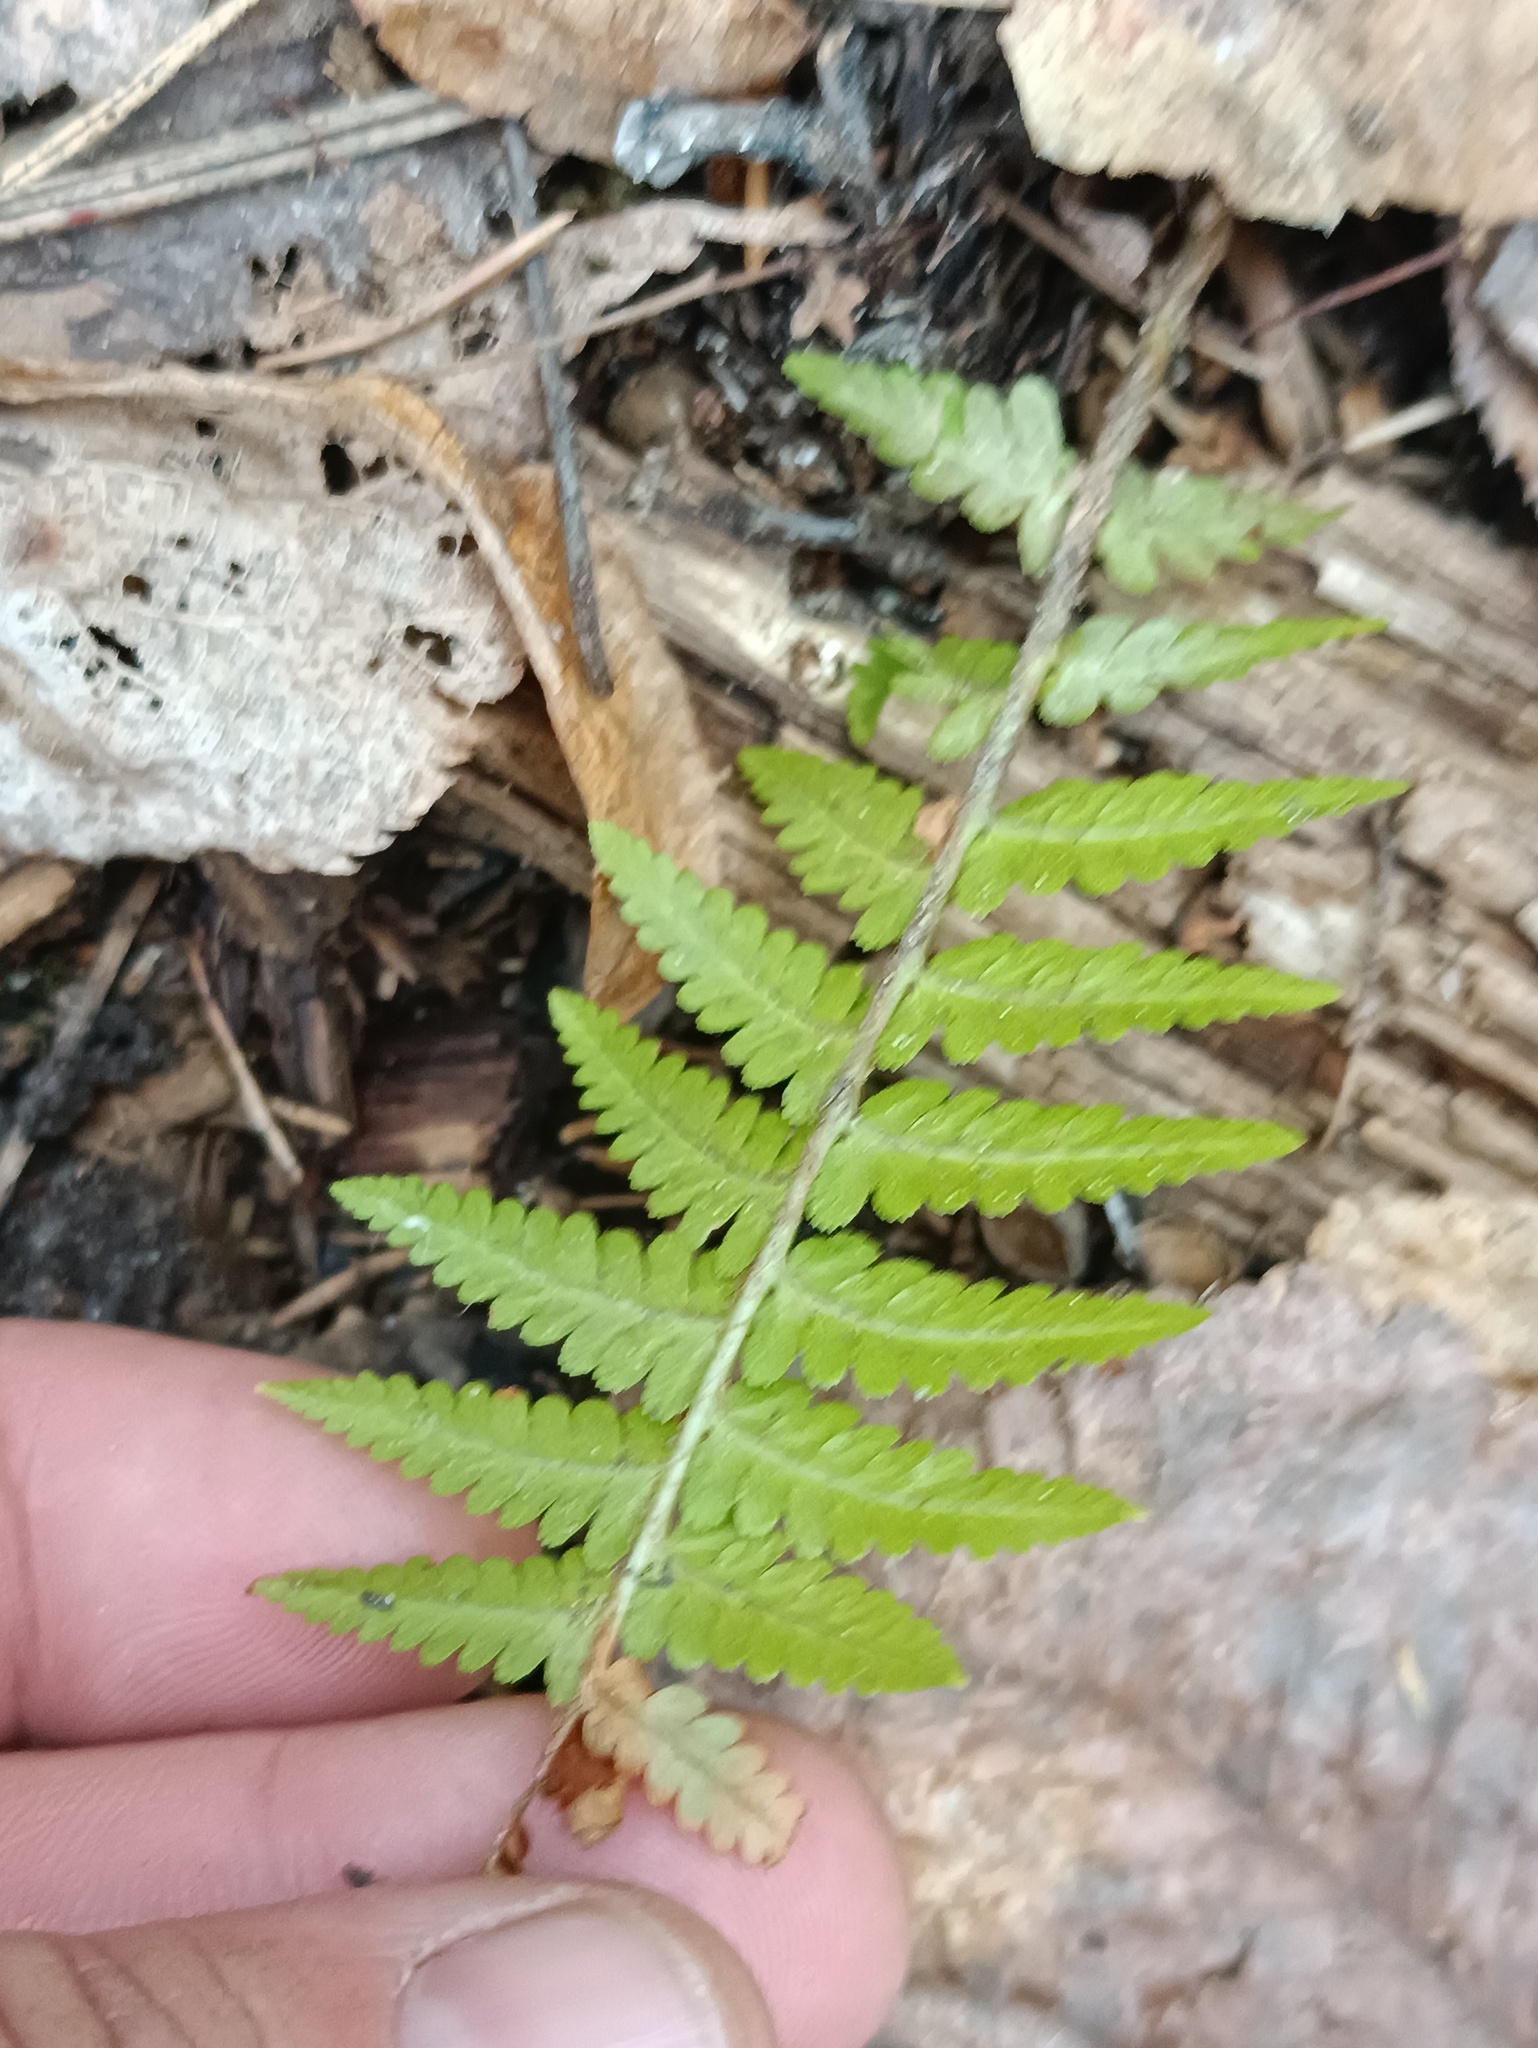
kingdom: Plantae
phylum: Tracheophyta
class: Polypodiopsida
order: Polypodiales
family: Dryopteridaceae
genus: Dryopteris
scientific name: Dryopteris filix-mas
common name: Male fern
